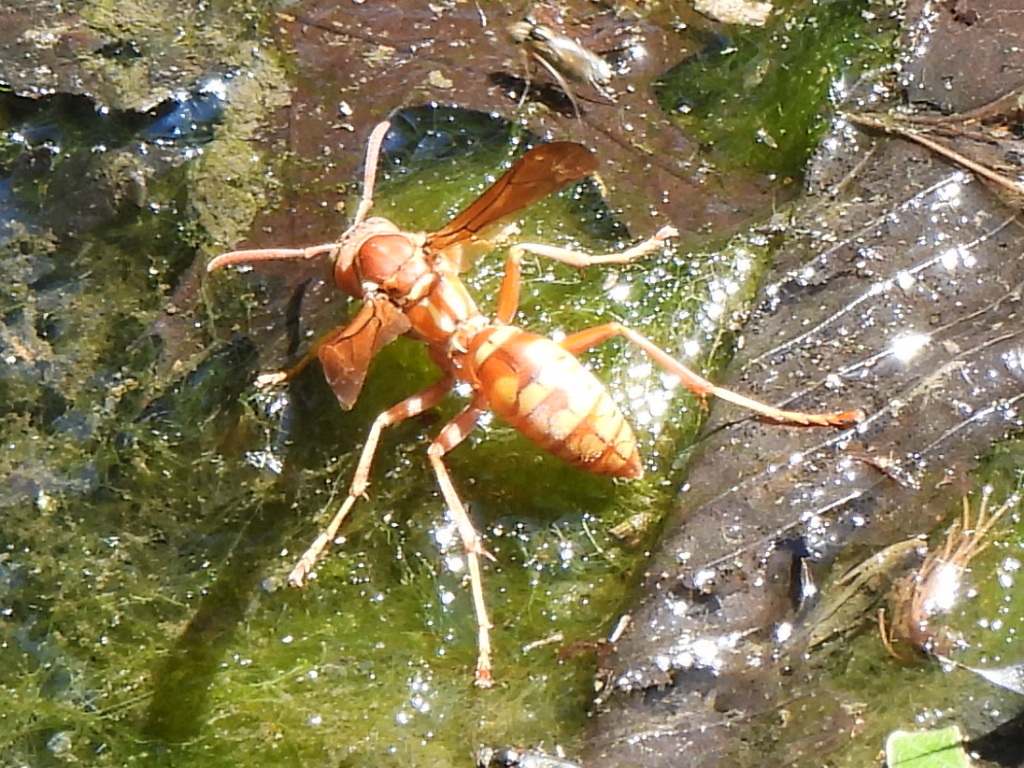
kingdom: Animalia
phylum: Arthropoda
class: Insecta
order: Hymenoptera
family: Eumenidae
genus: Polistes
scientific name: Polistes apachus
